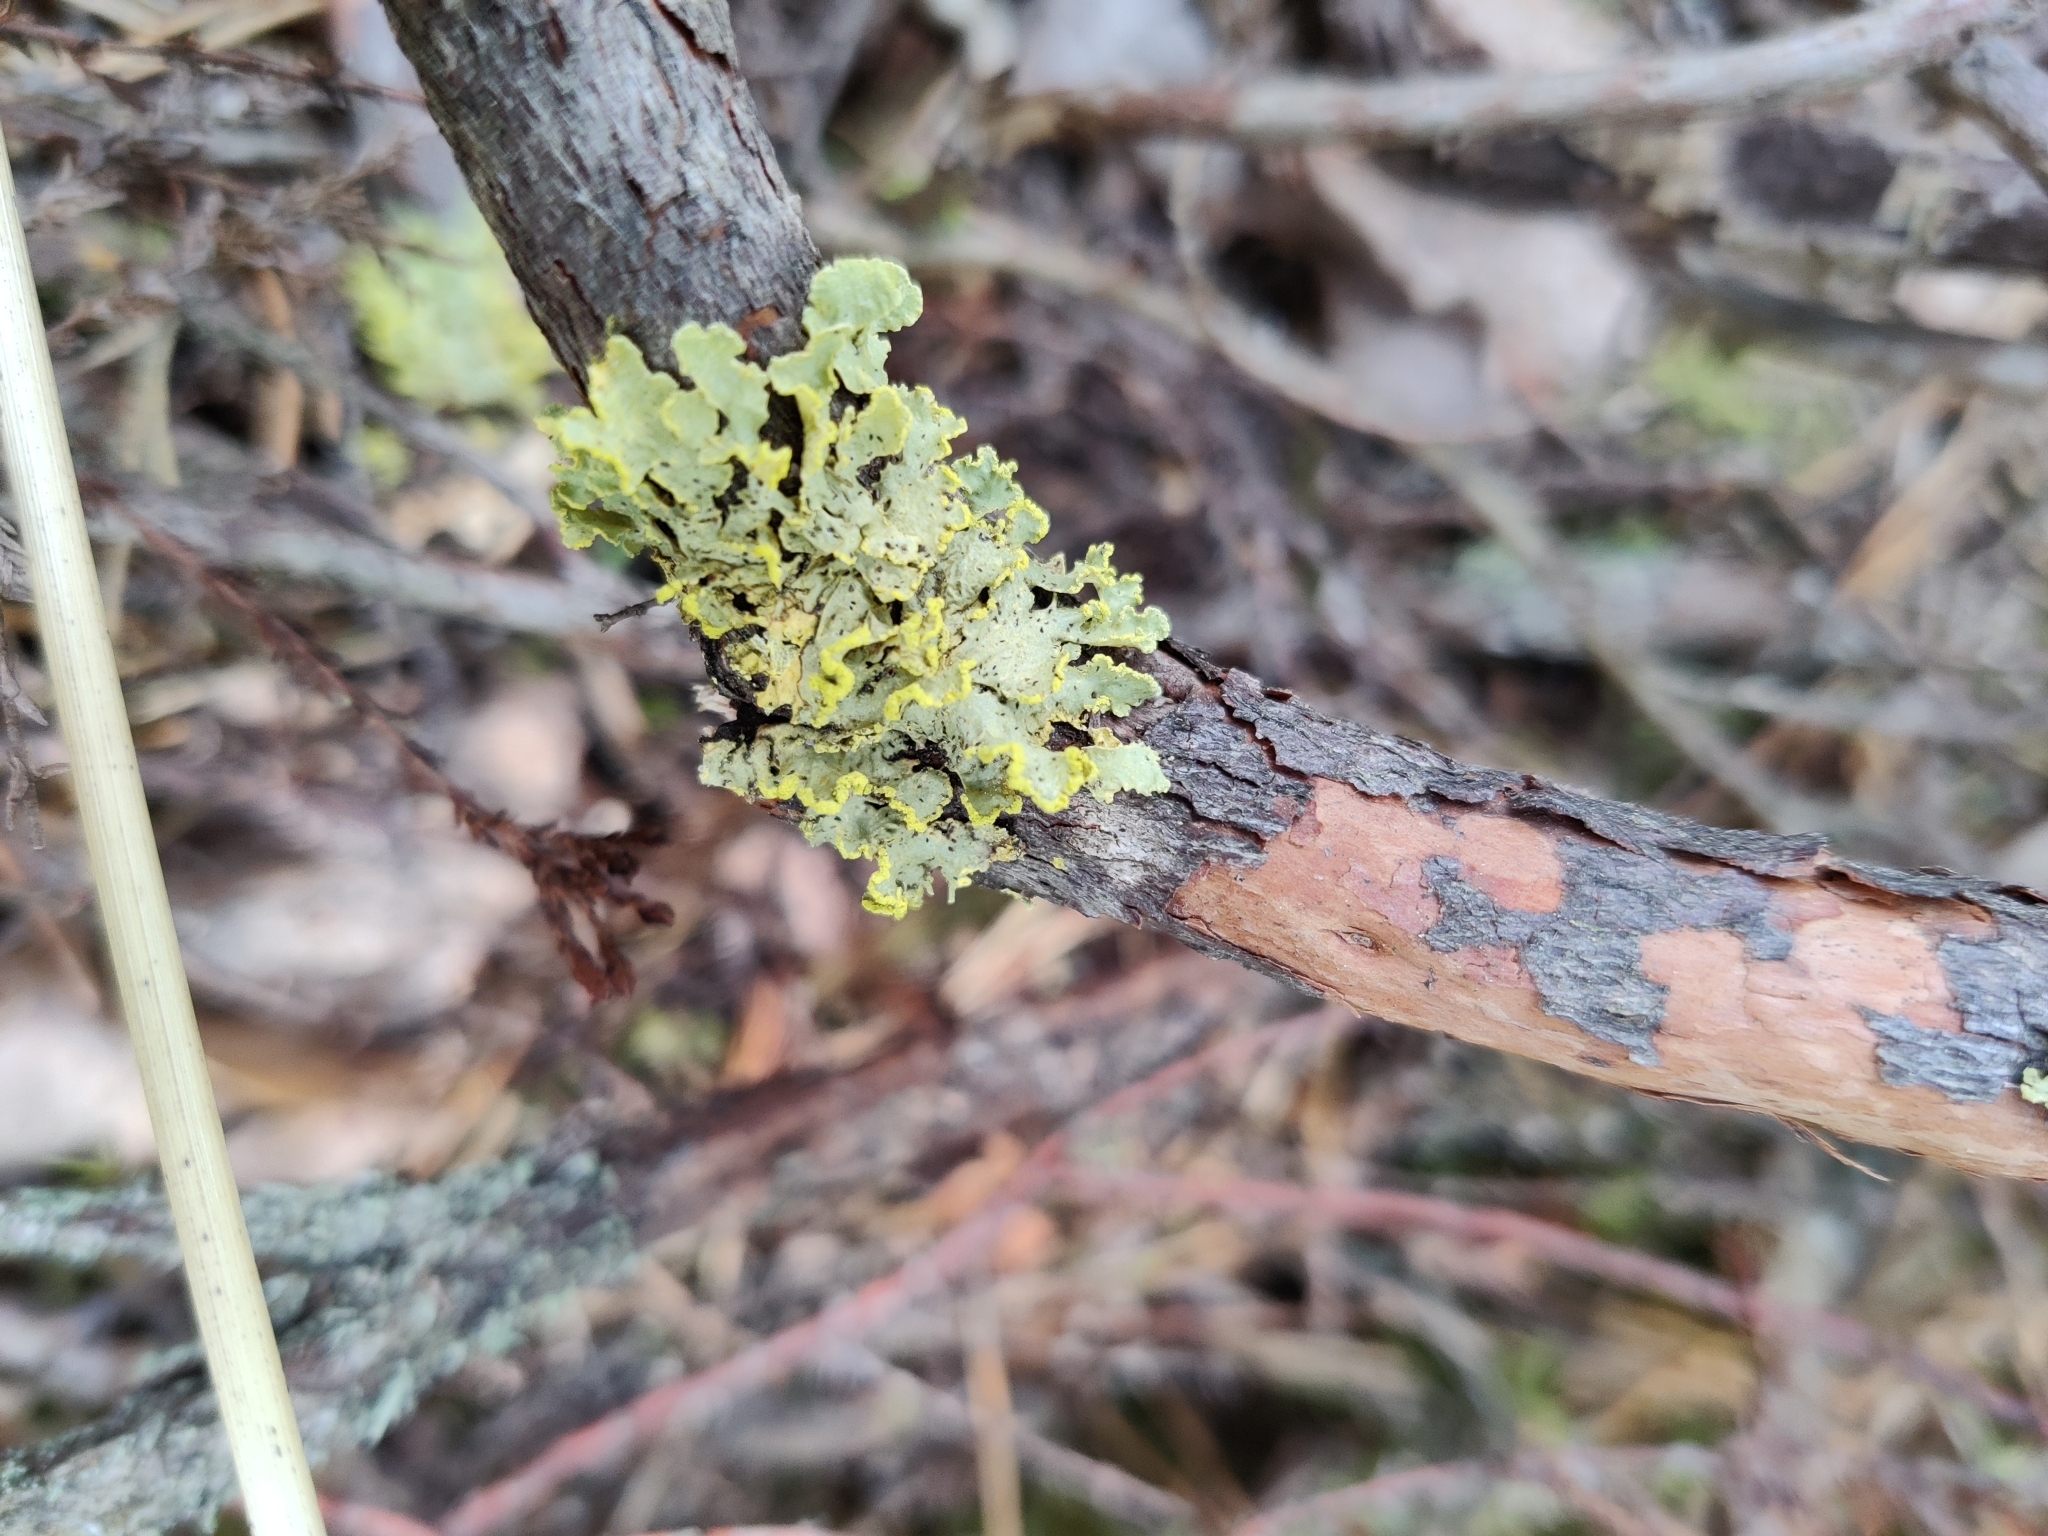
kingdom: Fungi
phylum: Ascomycota
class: Lecanoromycetes
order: Lecanorales
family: Parmeliaceae
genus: Vulpicida
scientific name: Vulpicida pinastri
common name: Powdered sunshine lichen
